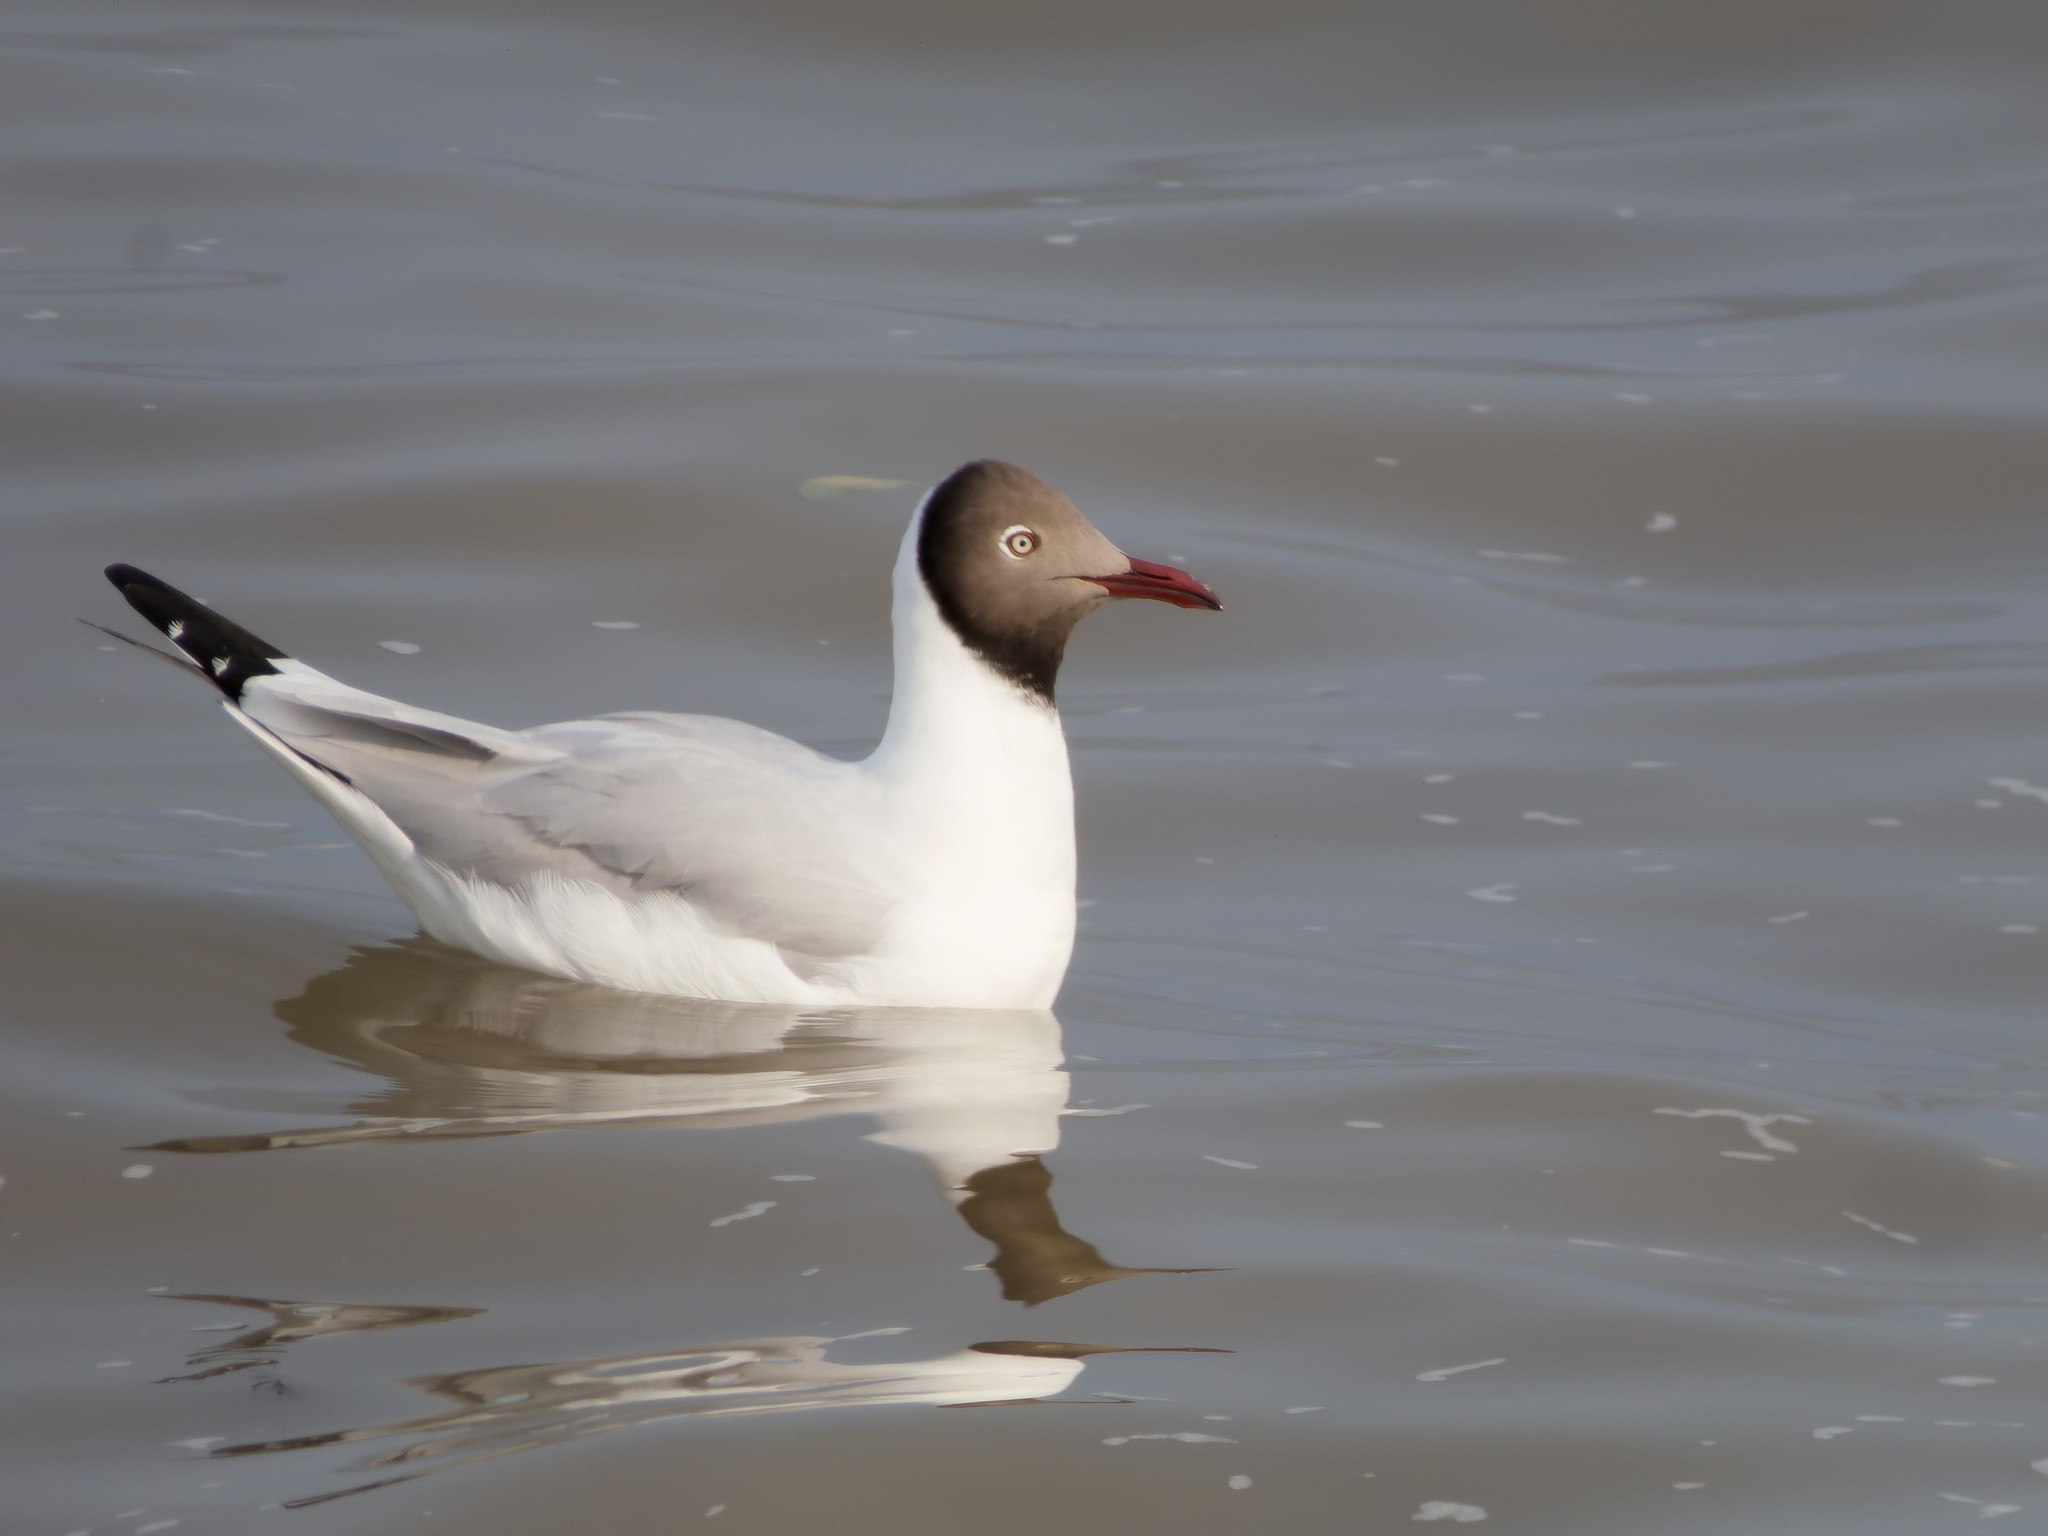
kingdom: Animalia
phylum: Chordata
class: Aves
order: Charadriiformes
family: Laridae
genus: Chroicocephalus
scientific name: Chroicocephalus brunnicephalus
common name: Brown-headed gull
